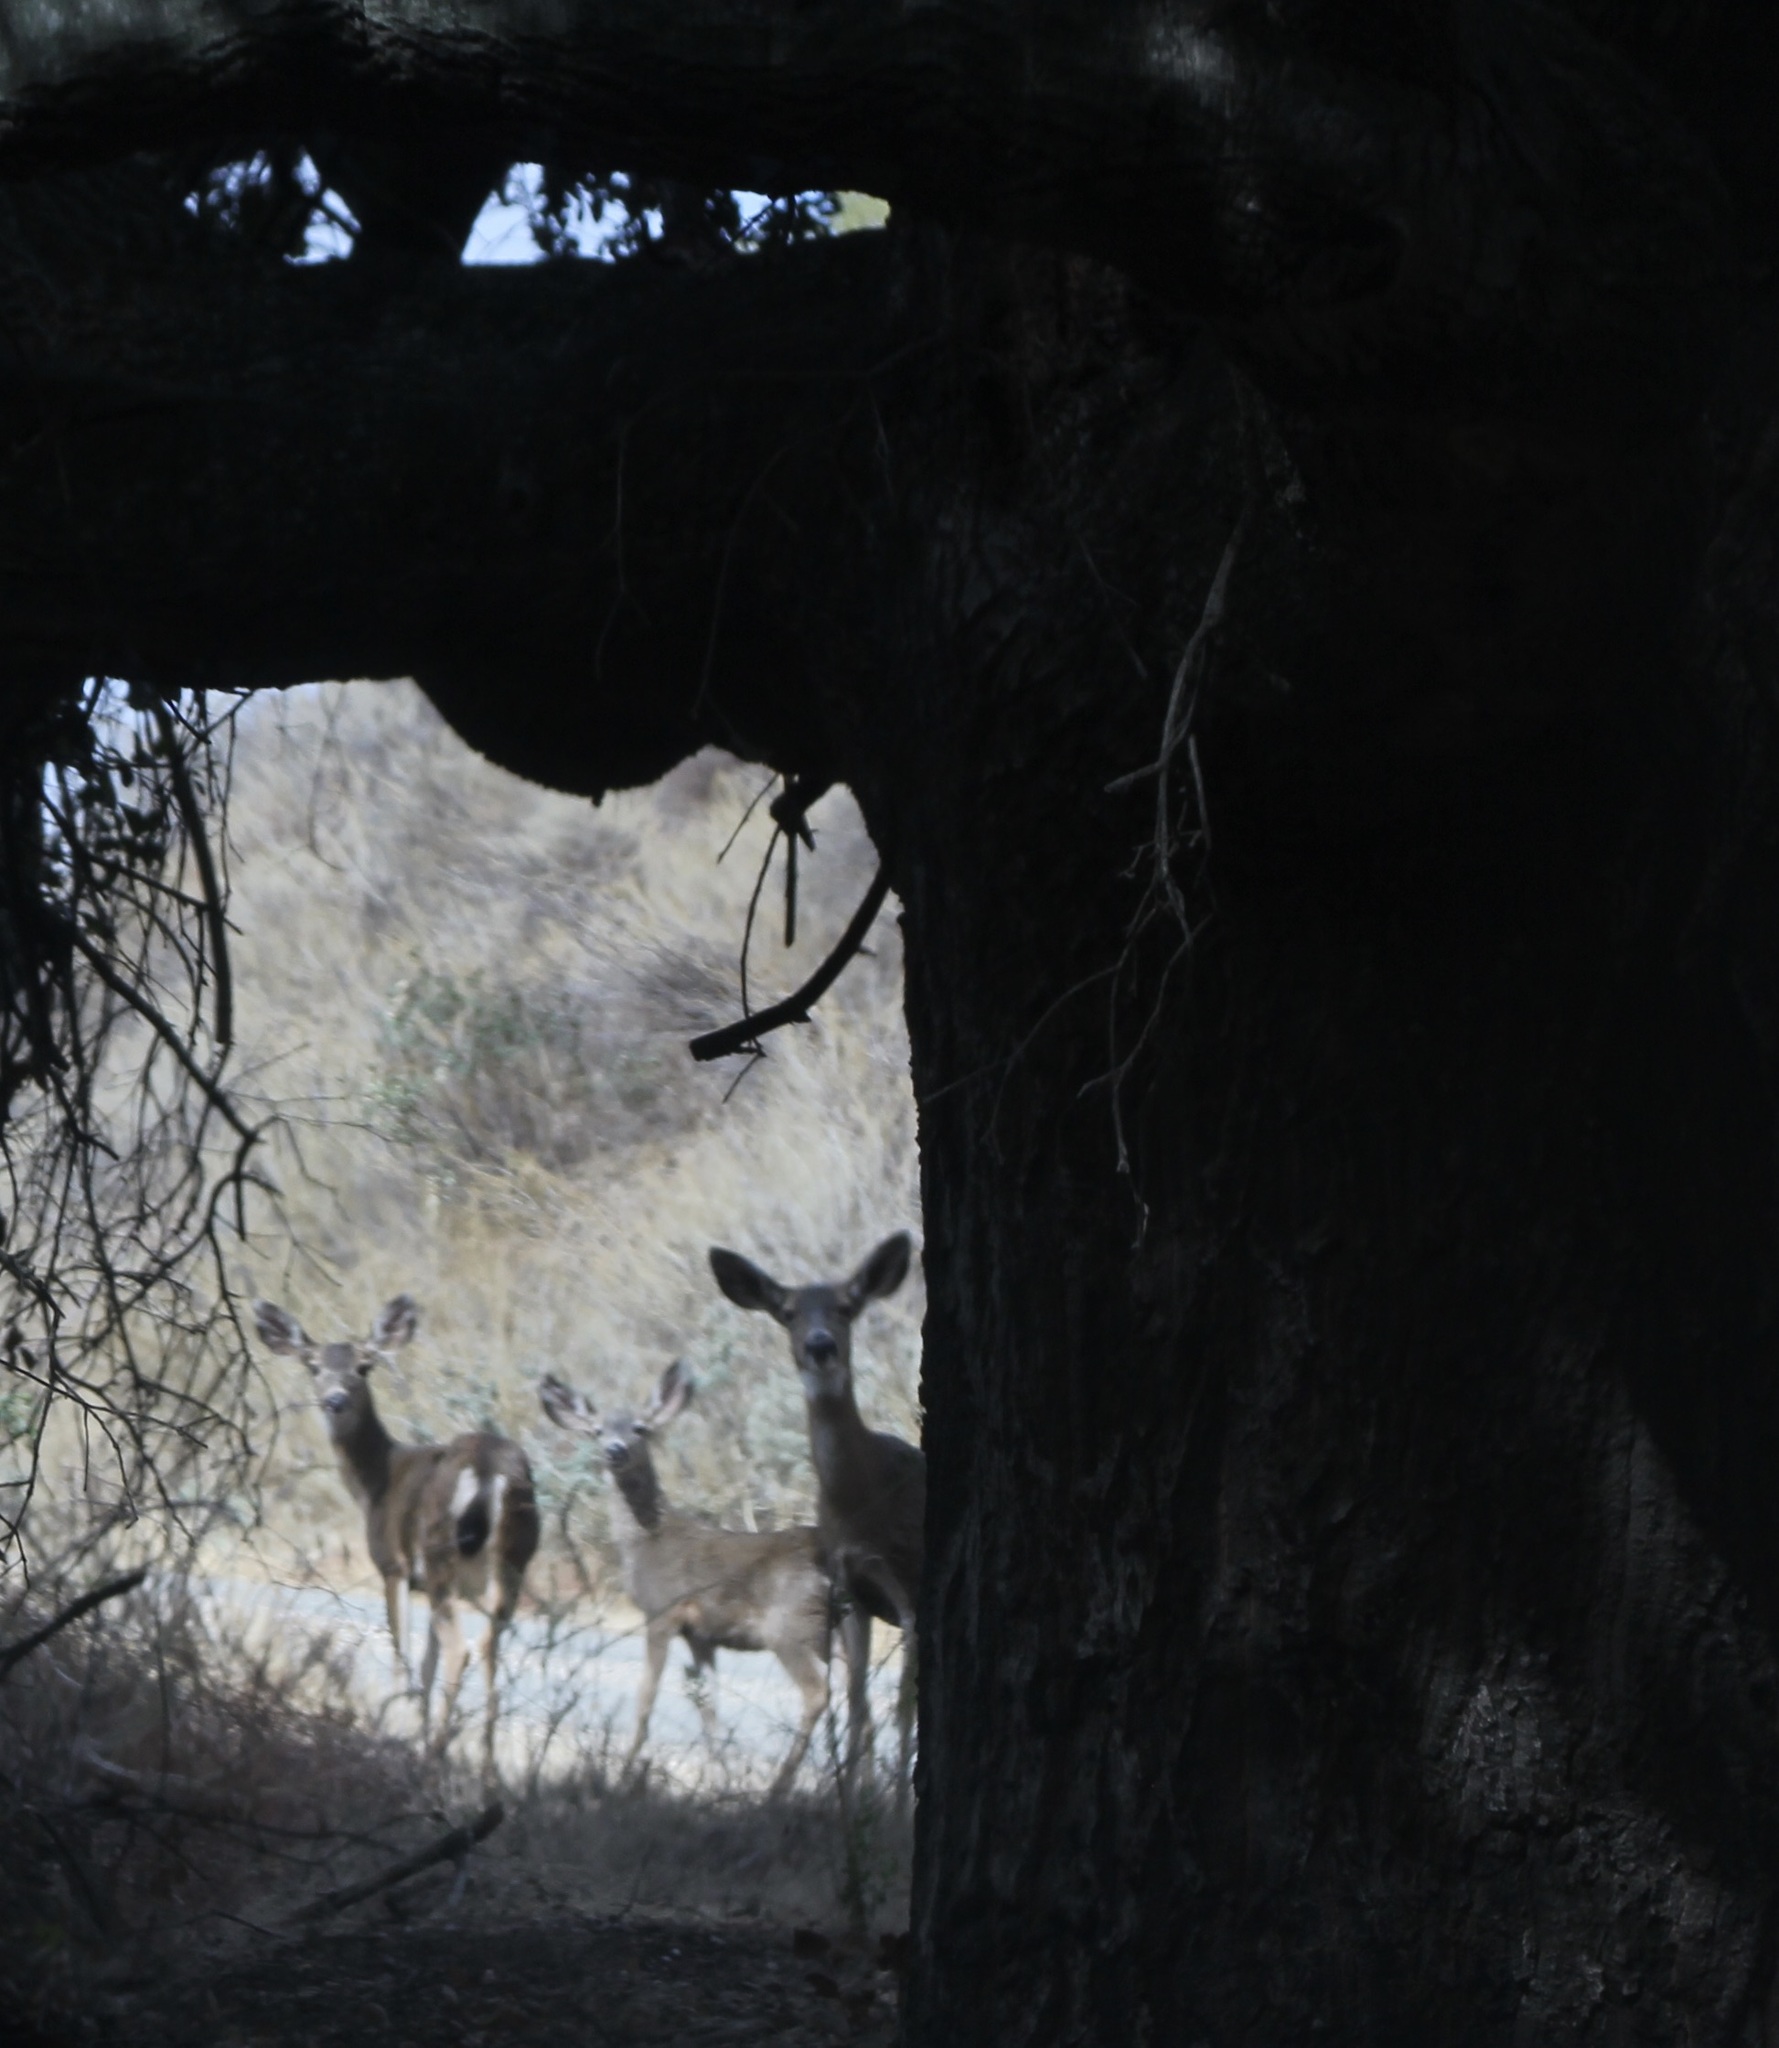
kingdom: Animalia
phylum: Chordata
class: Mammalia
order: Artiodactyla
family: Cervidae
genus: Odocoileus
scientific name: Odocoileus hemionus
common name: Mule deer
